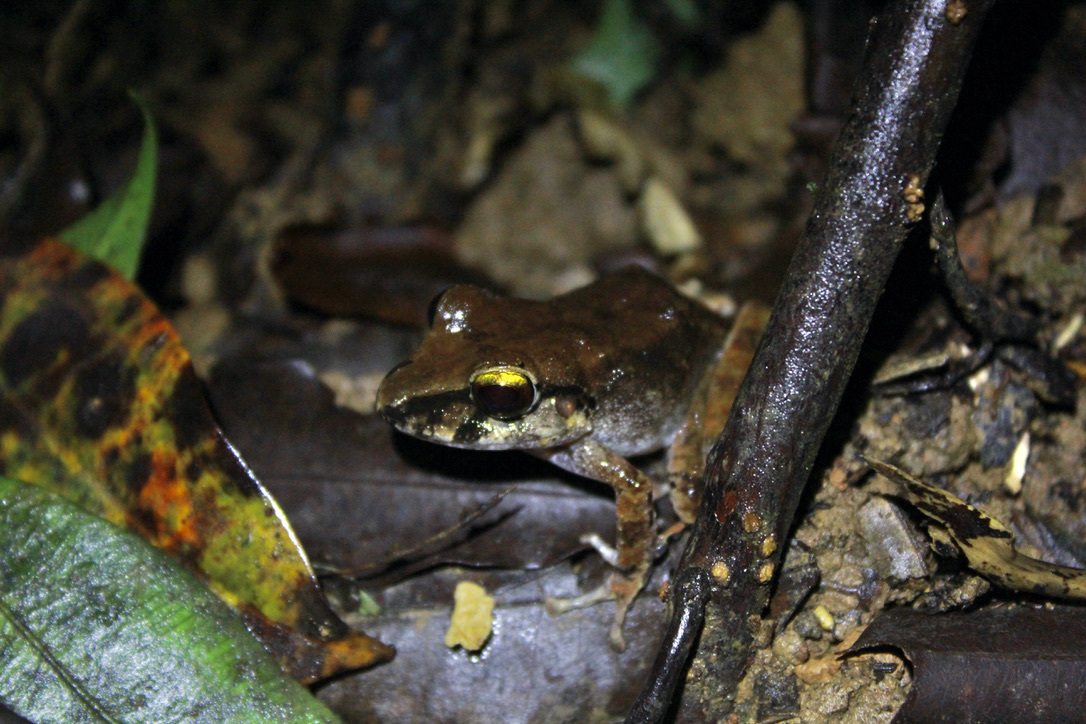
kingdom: Animalia
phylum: Chordata
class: Amphibia
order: Anura
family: Craugastoridae
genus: Pristimantis
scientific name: Pristimantis charlottevillensis
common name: Charlotteville leaf-litter frog
